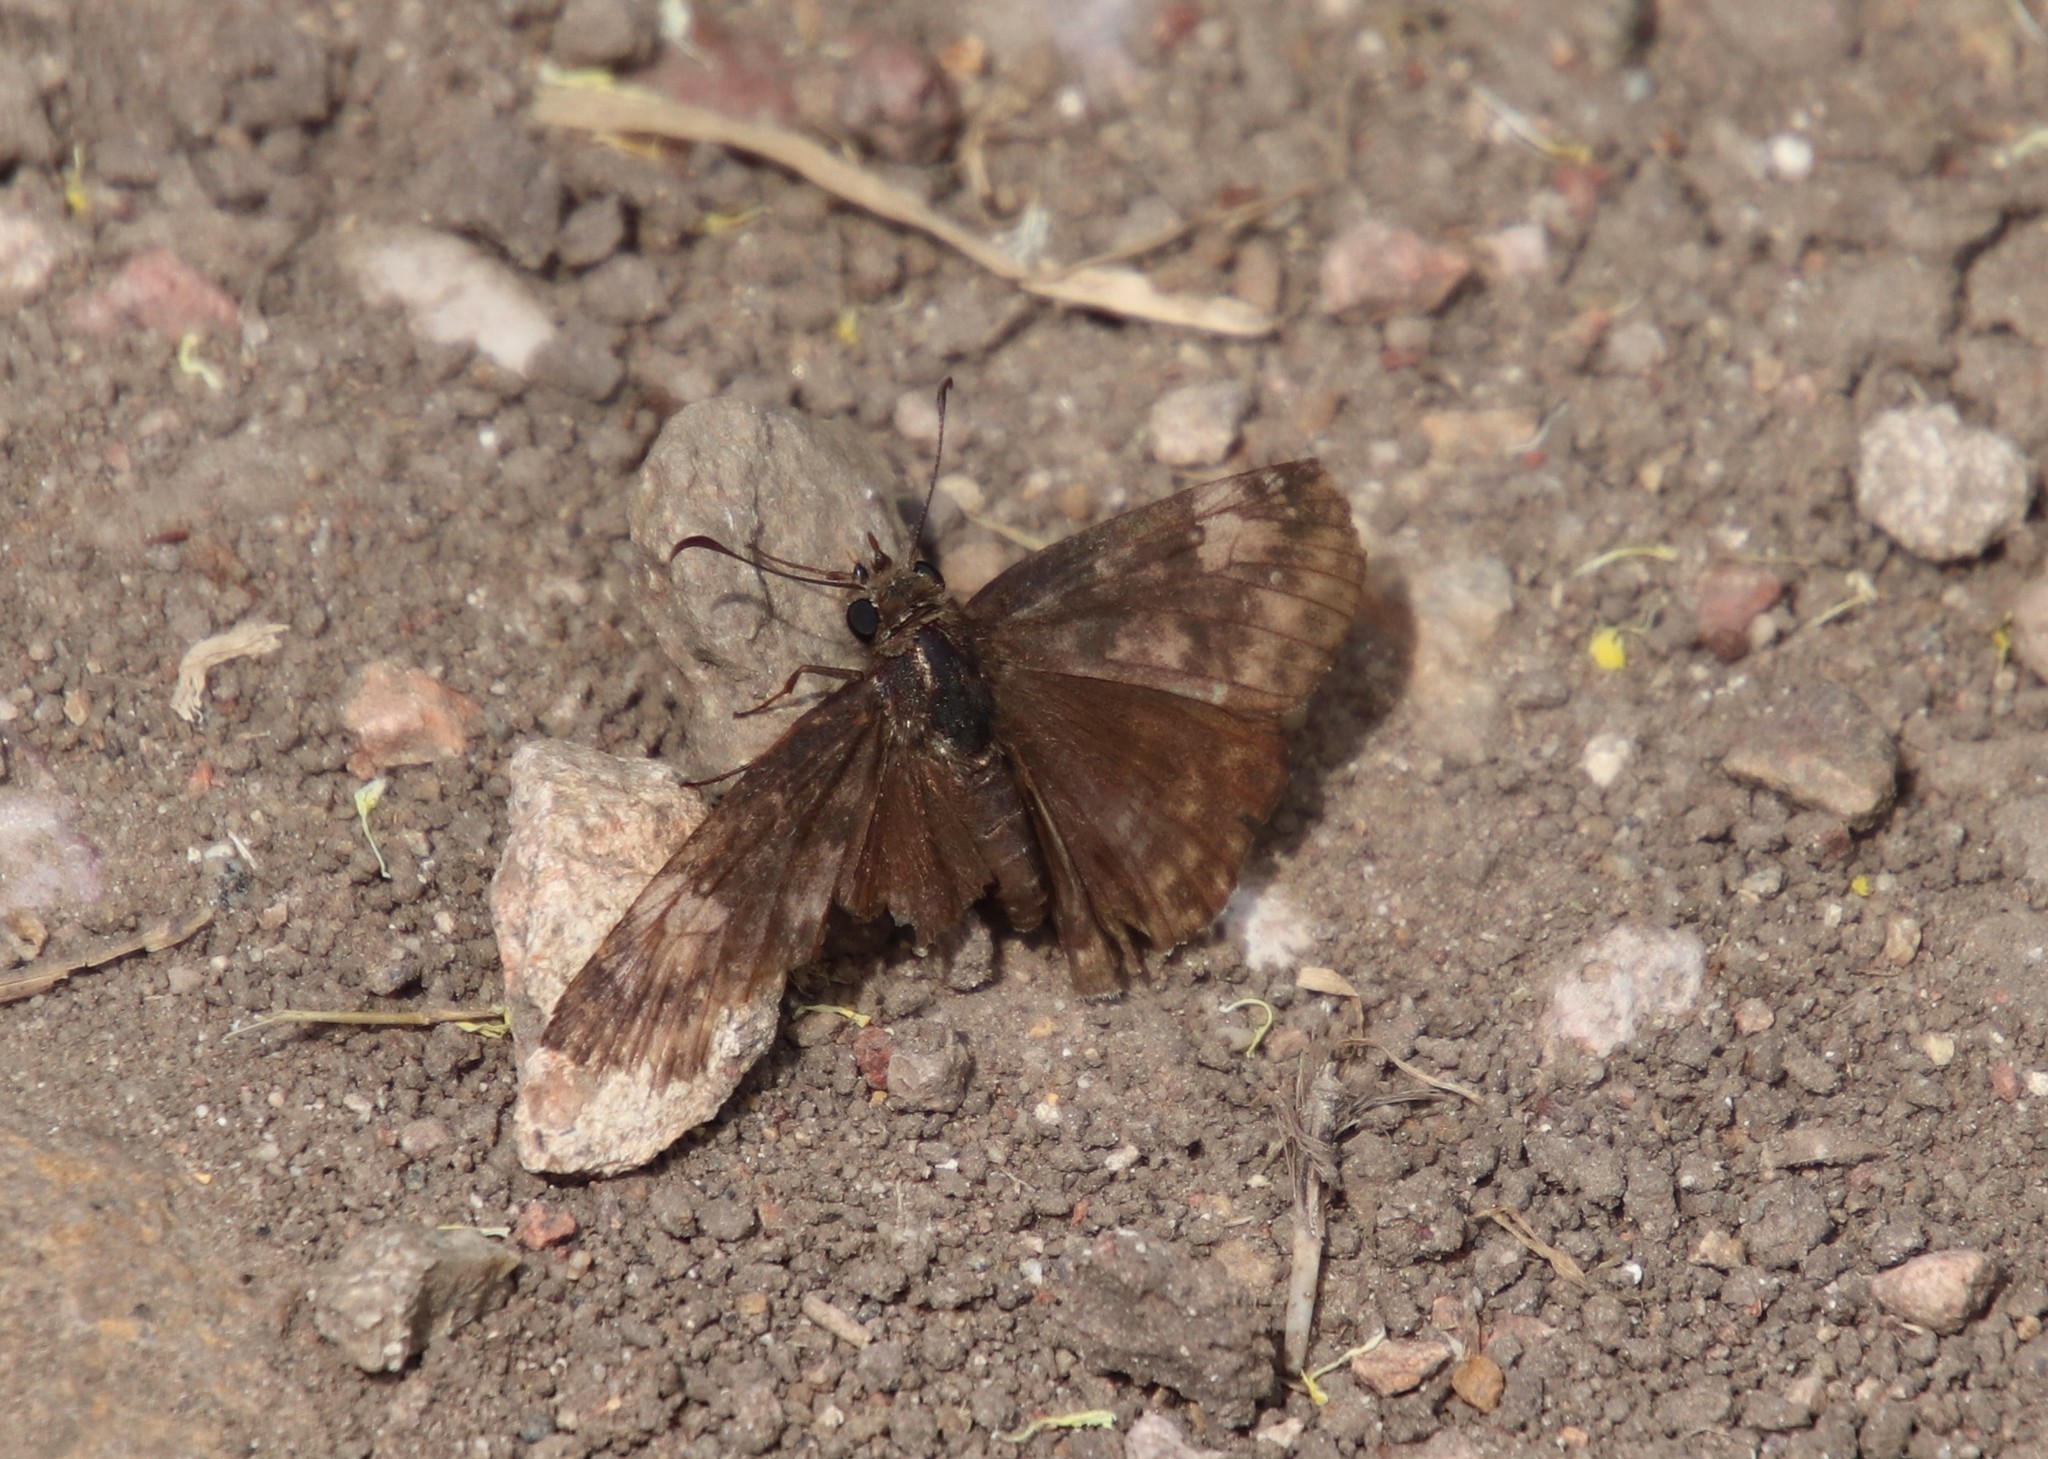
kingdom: Animalia
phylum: Arthropoda
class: Insecta
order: Lepidoptera
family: Hesperiidae
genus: Erynnis
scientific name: Erynnis tristis
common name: Mournful duskywing
